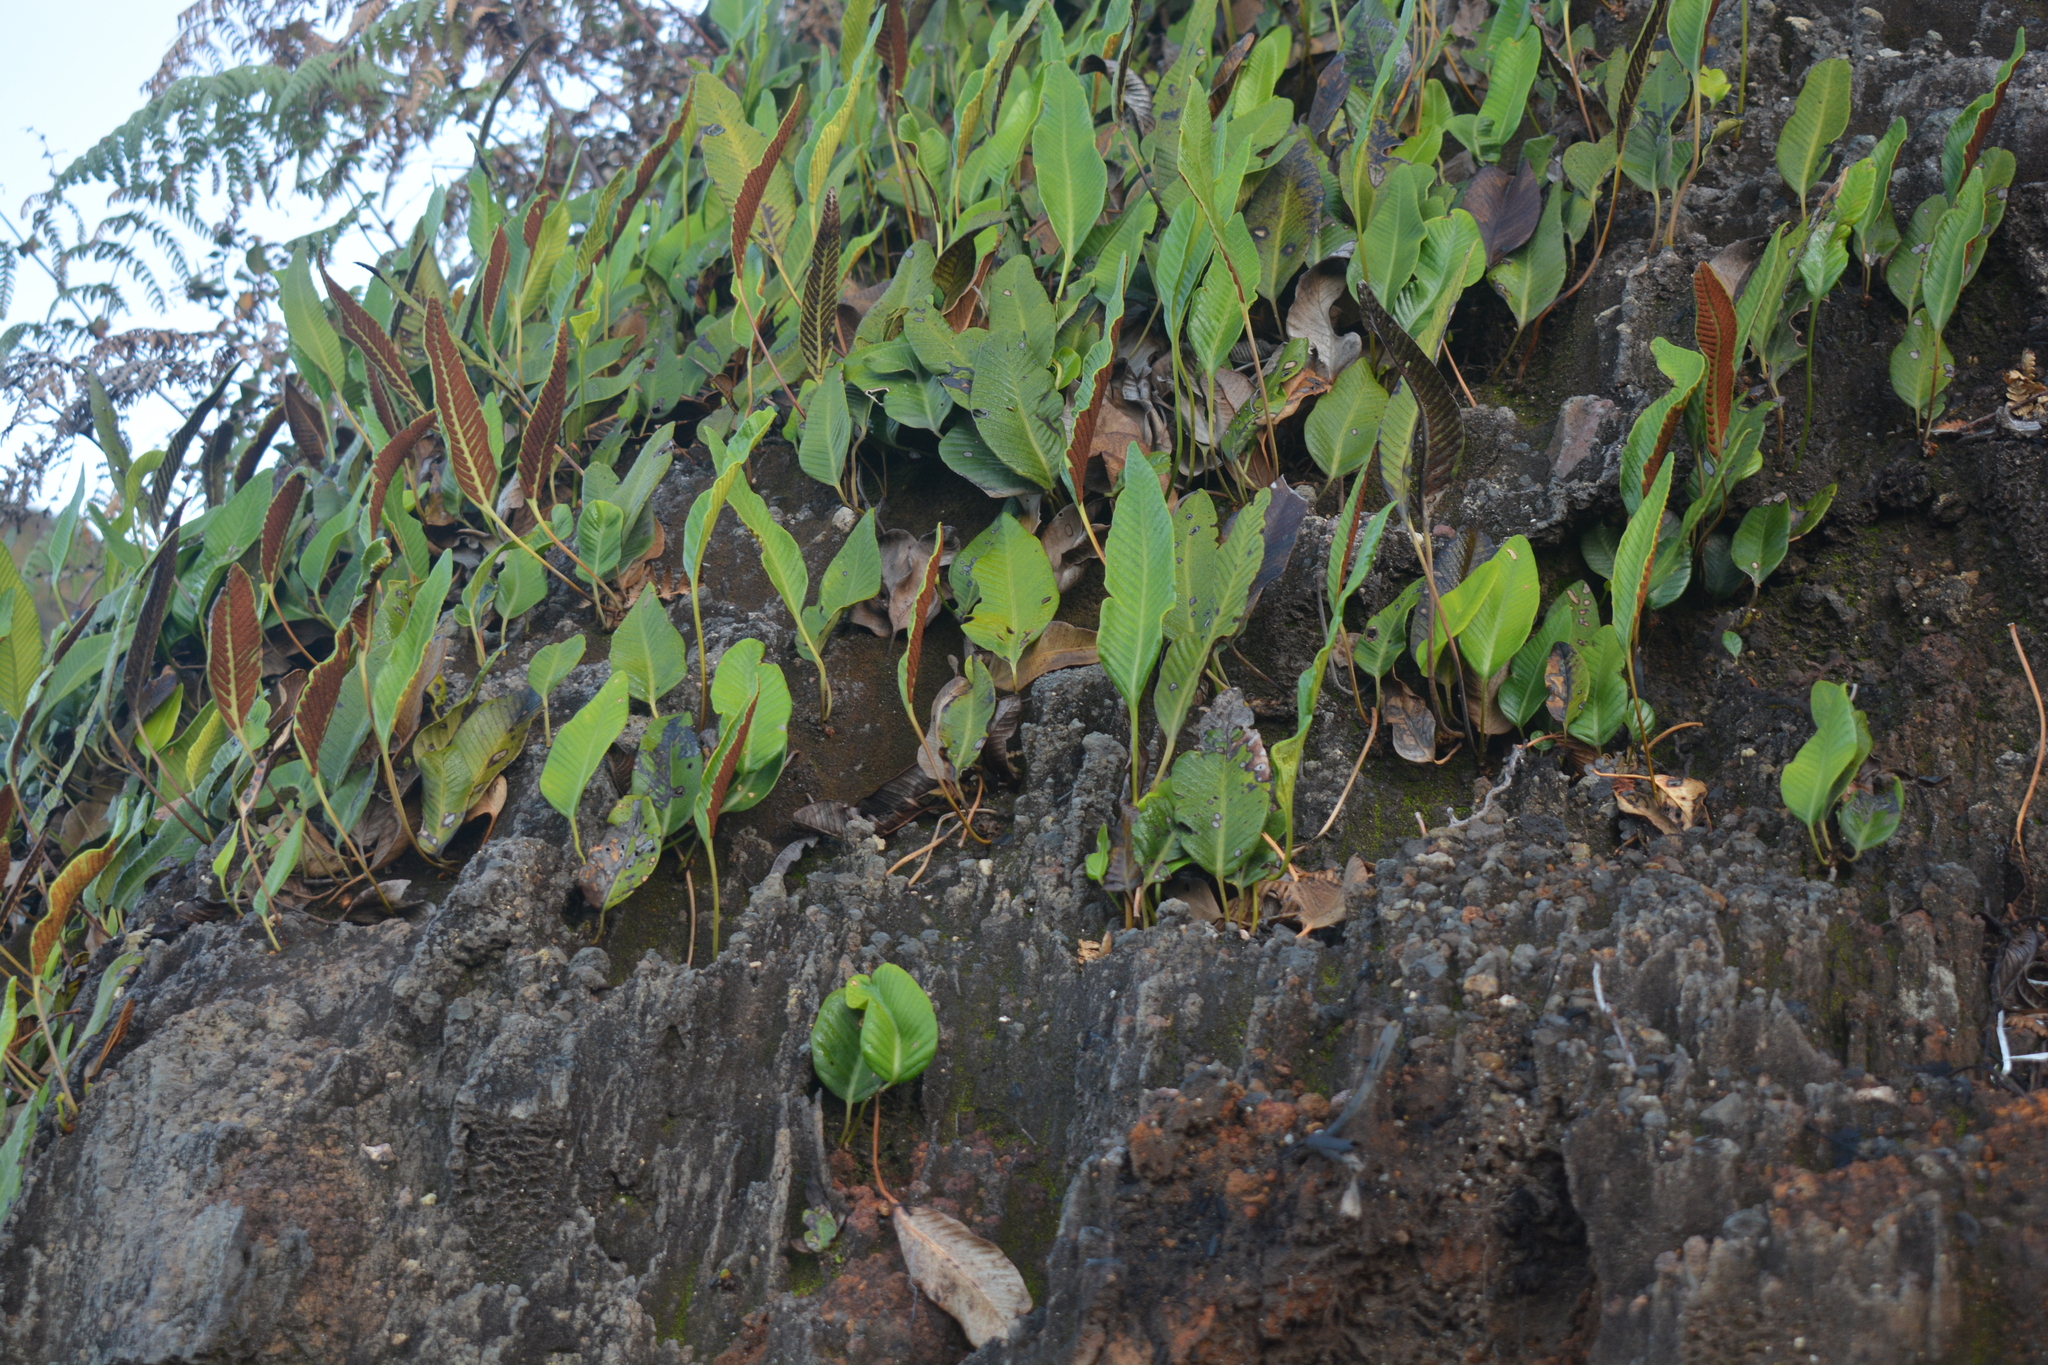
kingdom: Plantae
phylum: Tracheophyta
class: Polypodiopsida
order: Polypodiales
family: Polypodiaceae
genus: Selliguea
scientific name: Selliguea feei
